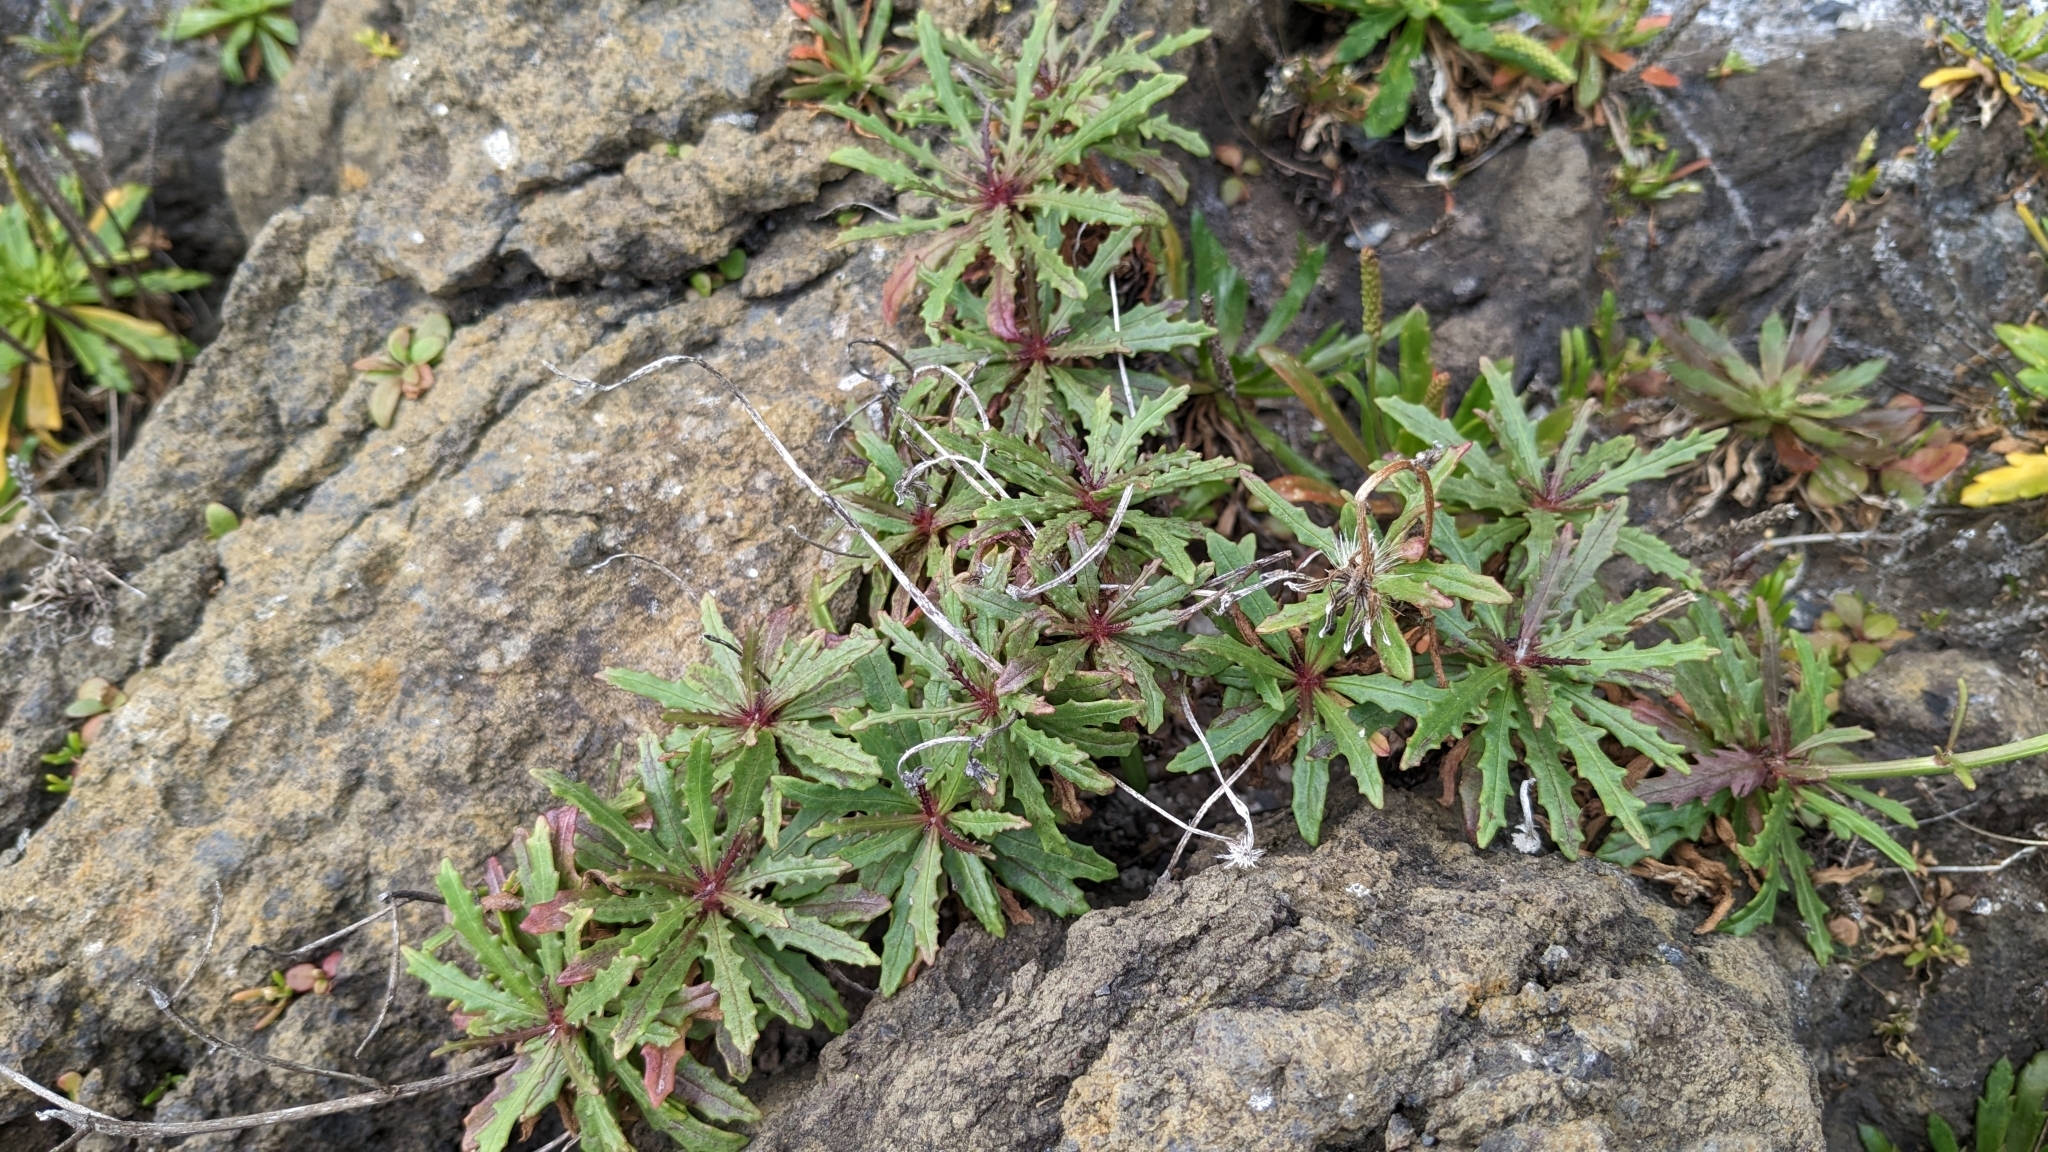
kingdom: Plantae
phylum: Tracheophyta
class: Magnoliopsida
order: Asterales
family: Asteraceae
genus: Tolpis
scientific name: Tolpis succulenta
